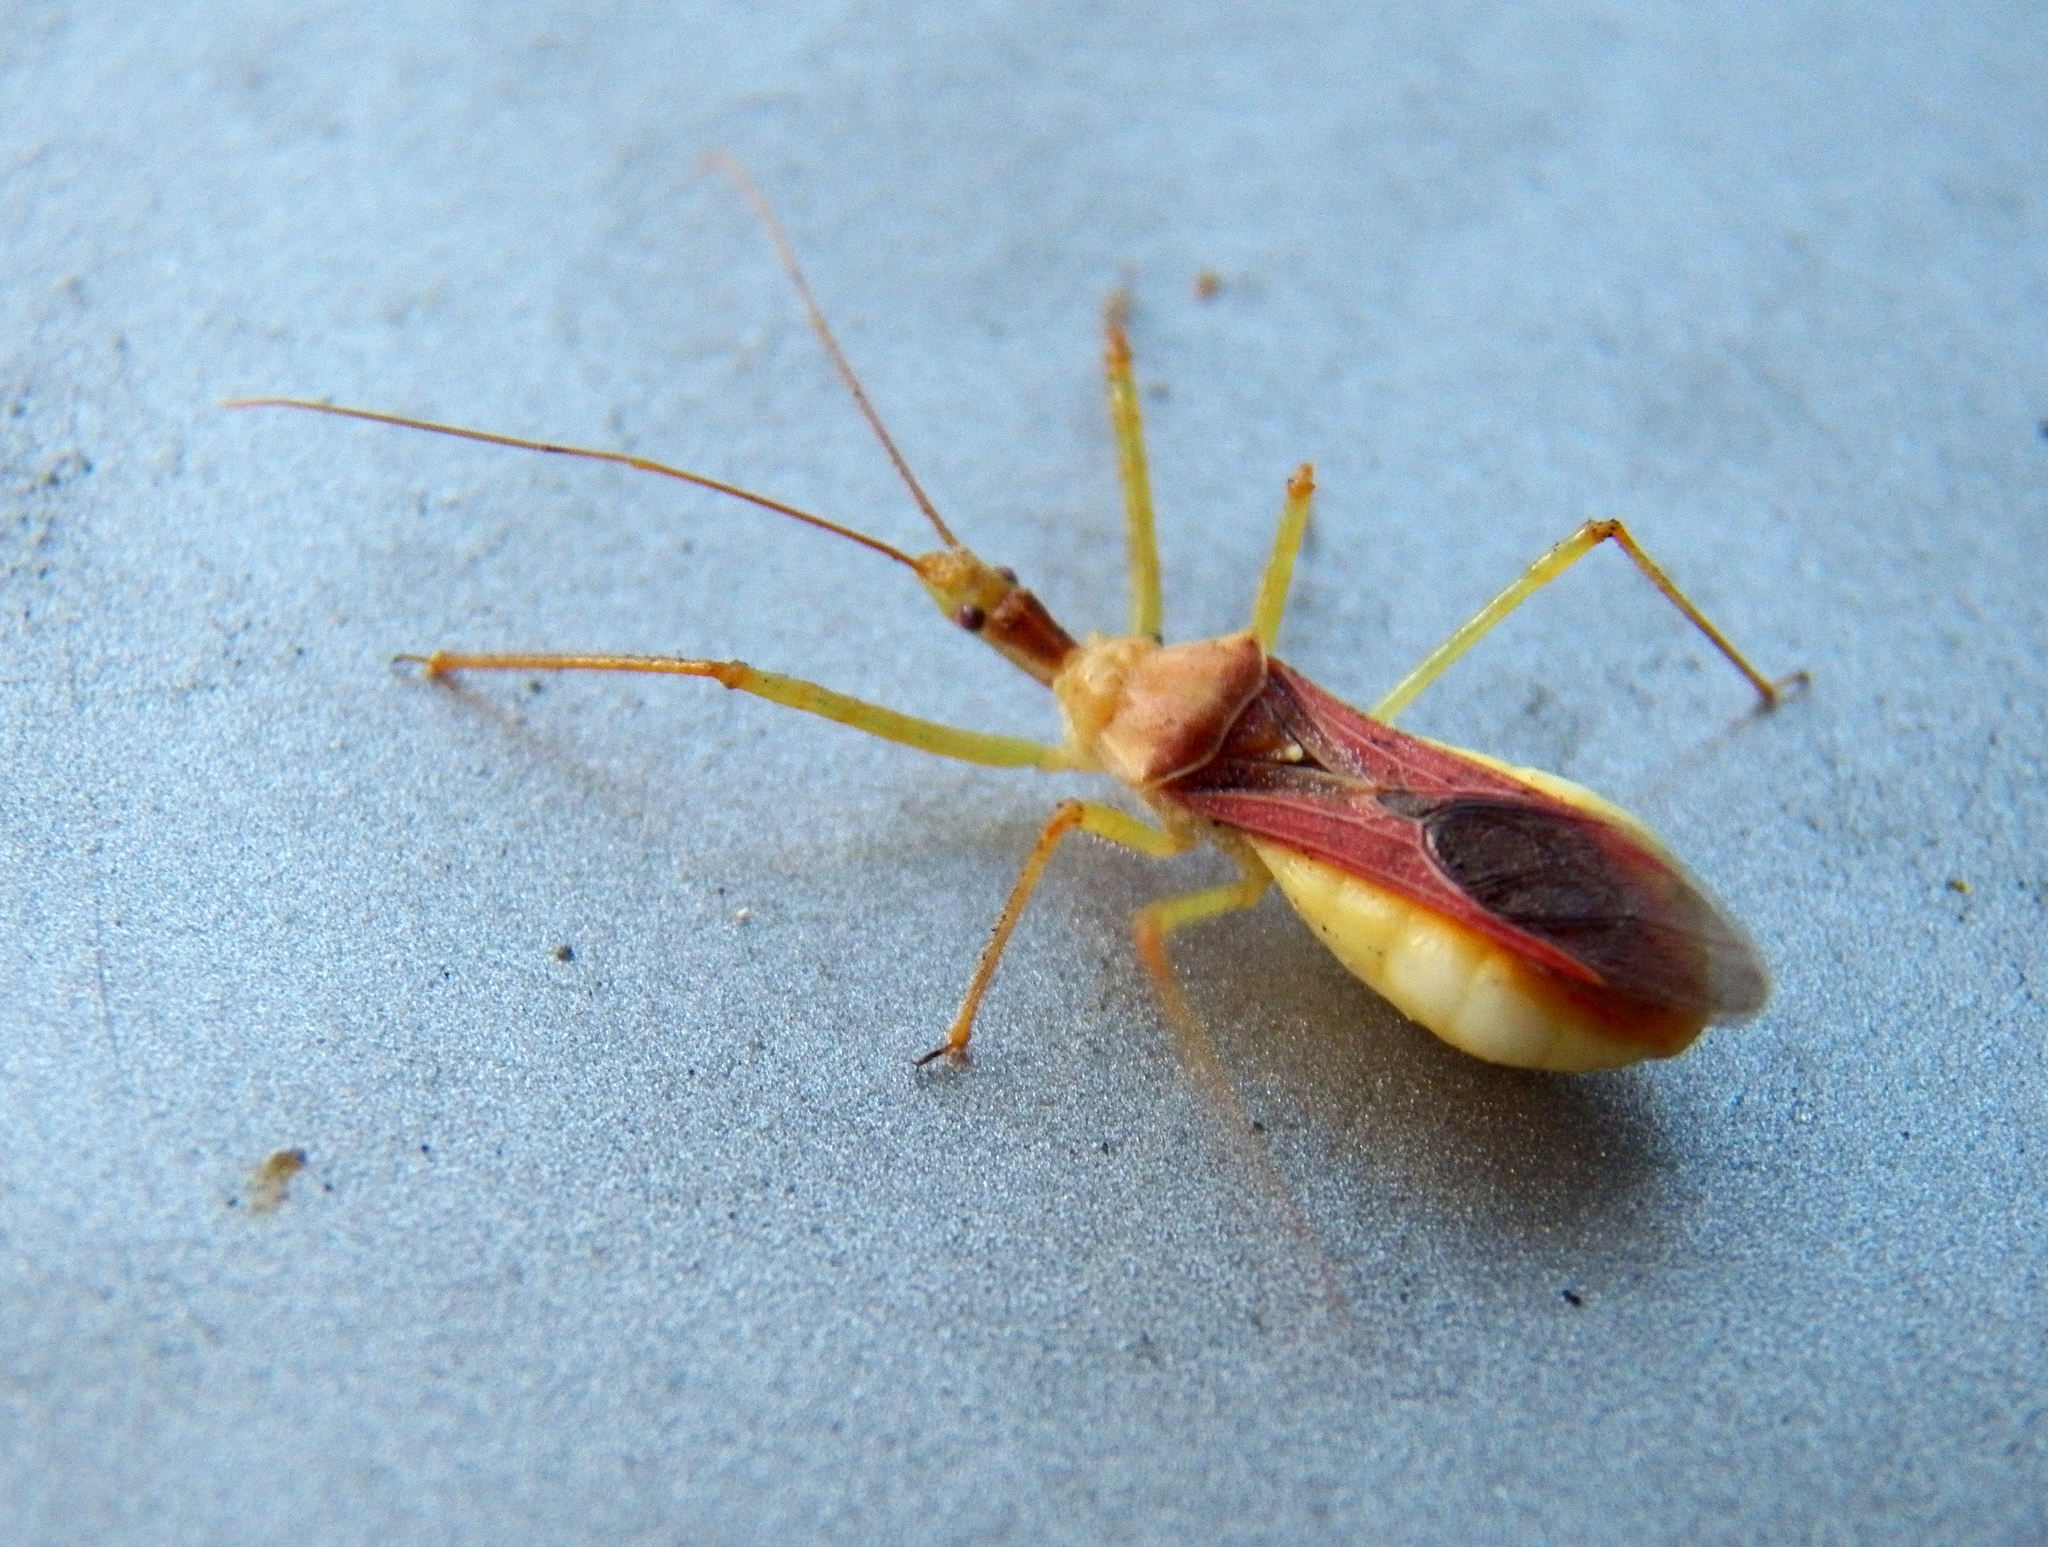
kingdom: Animalia
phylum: Arthropoda
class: Insecta
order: Hemiptera
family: Reduviidae
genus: Zelus
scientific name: Zelus renardii
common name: Assassin bug
